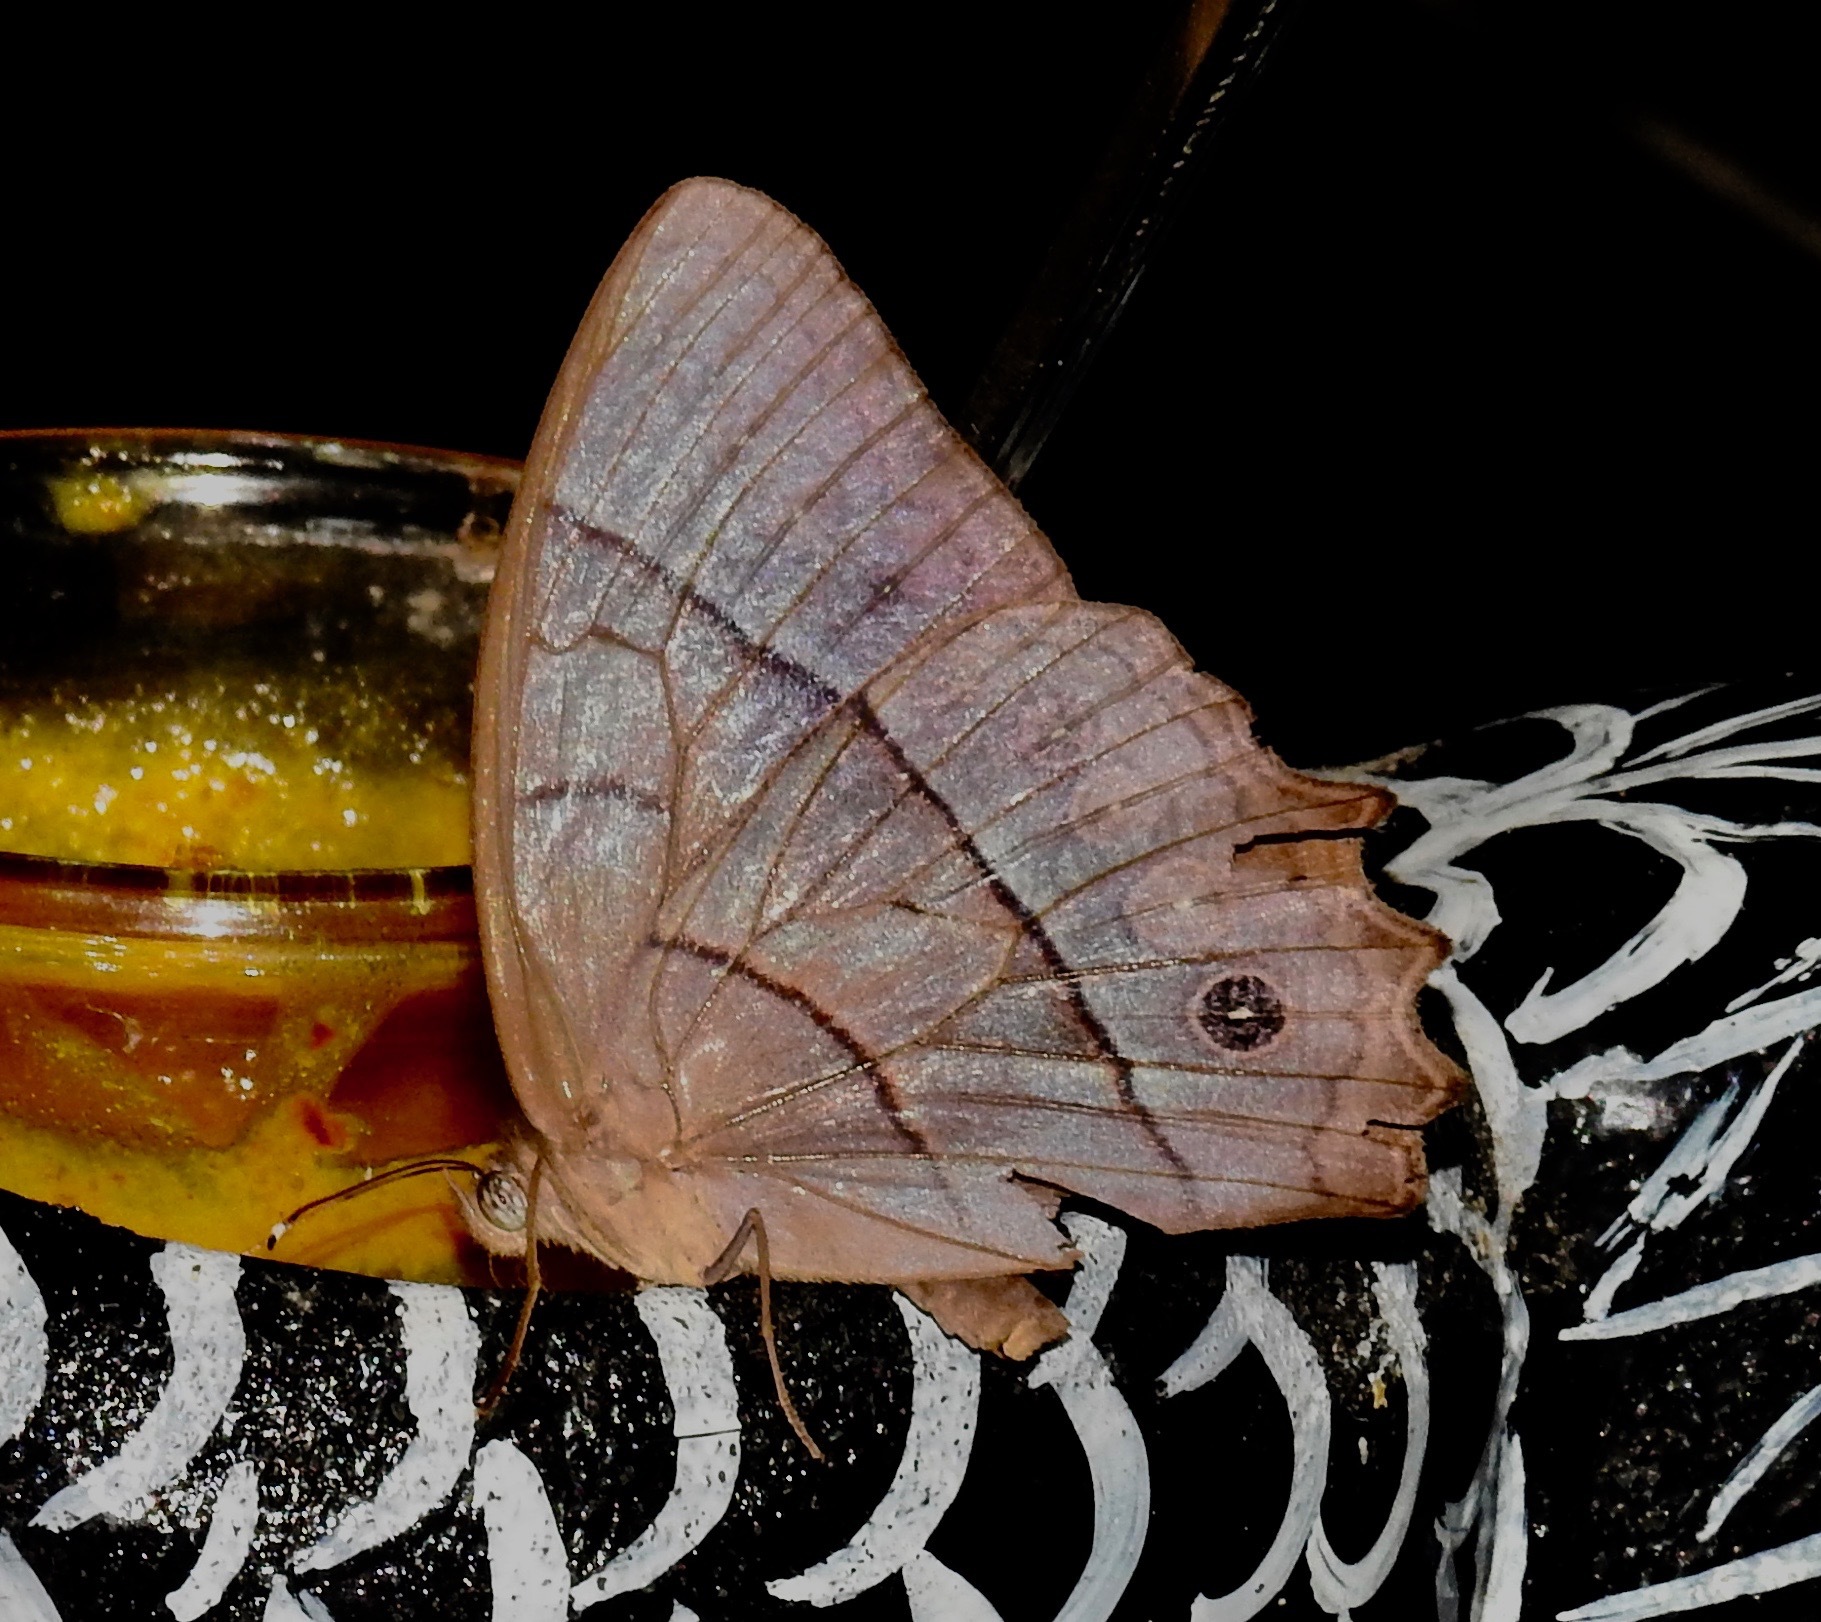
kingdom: Animalia
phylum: Arthropoda
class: Insecta
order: Lepidoptera
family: Nymphalidae
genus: Taygetis
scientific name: Taygetis salvini
